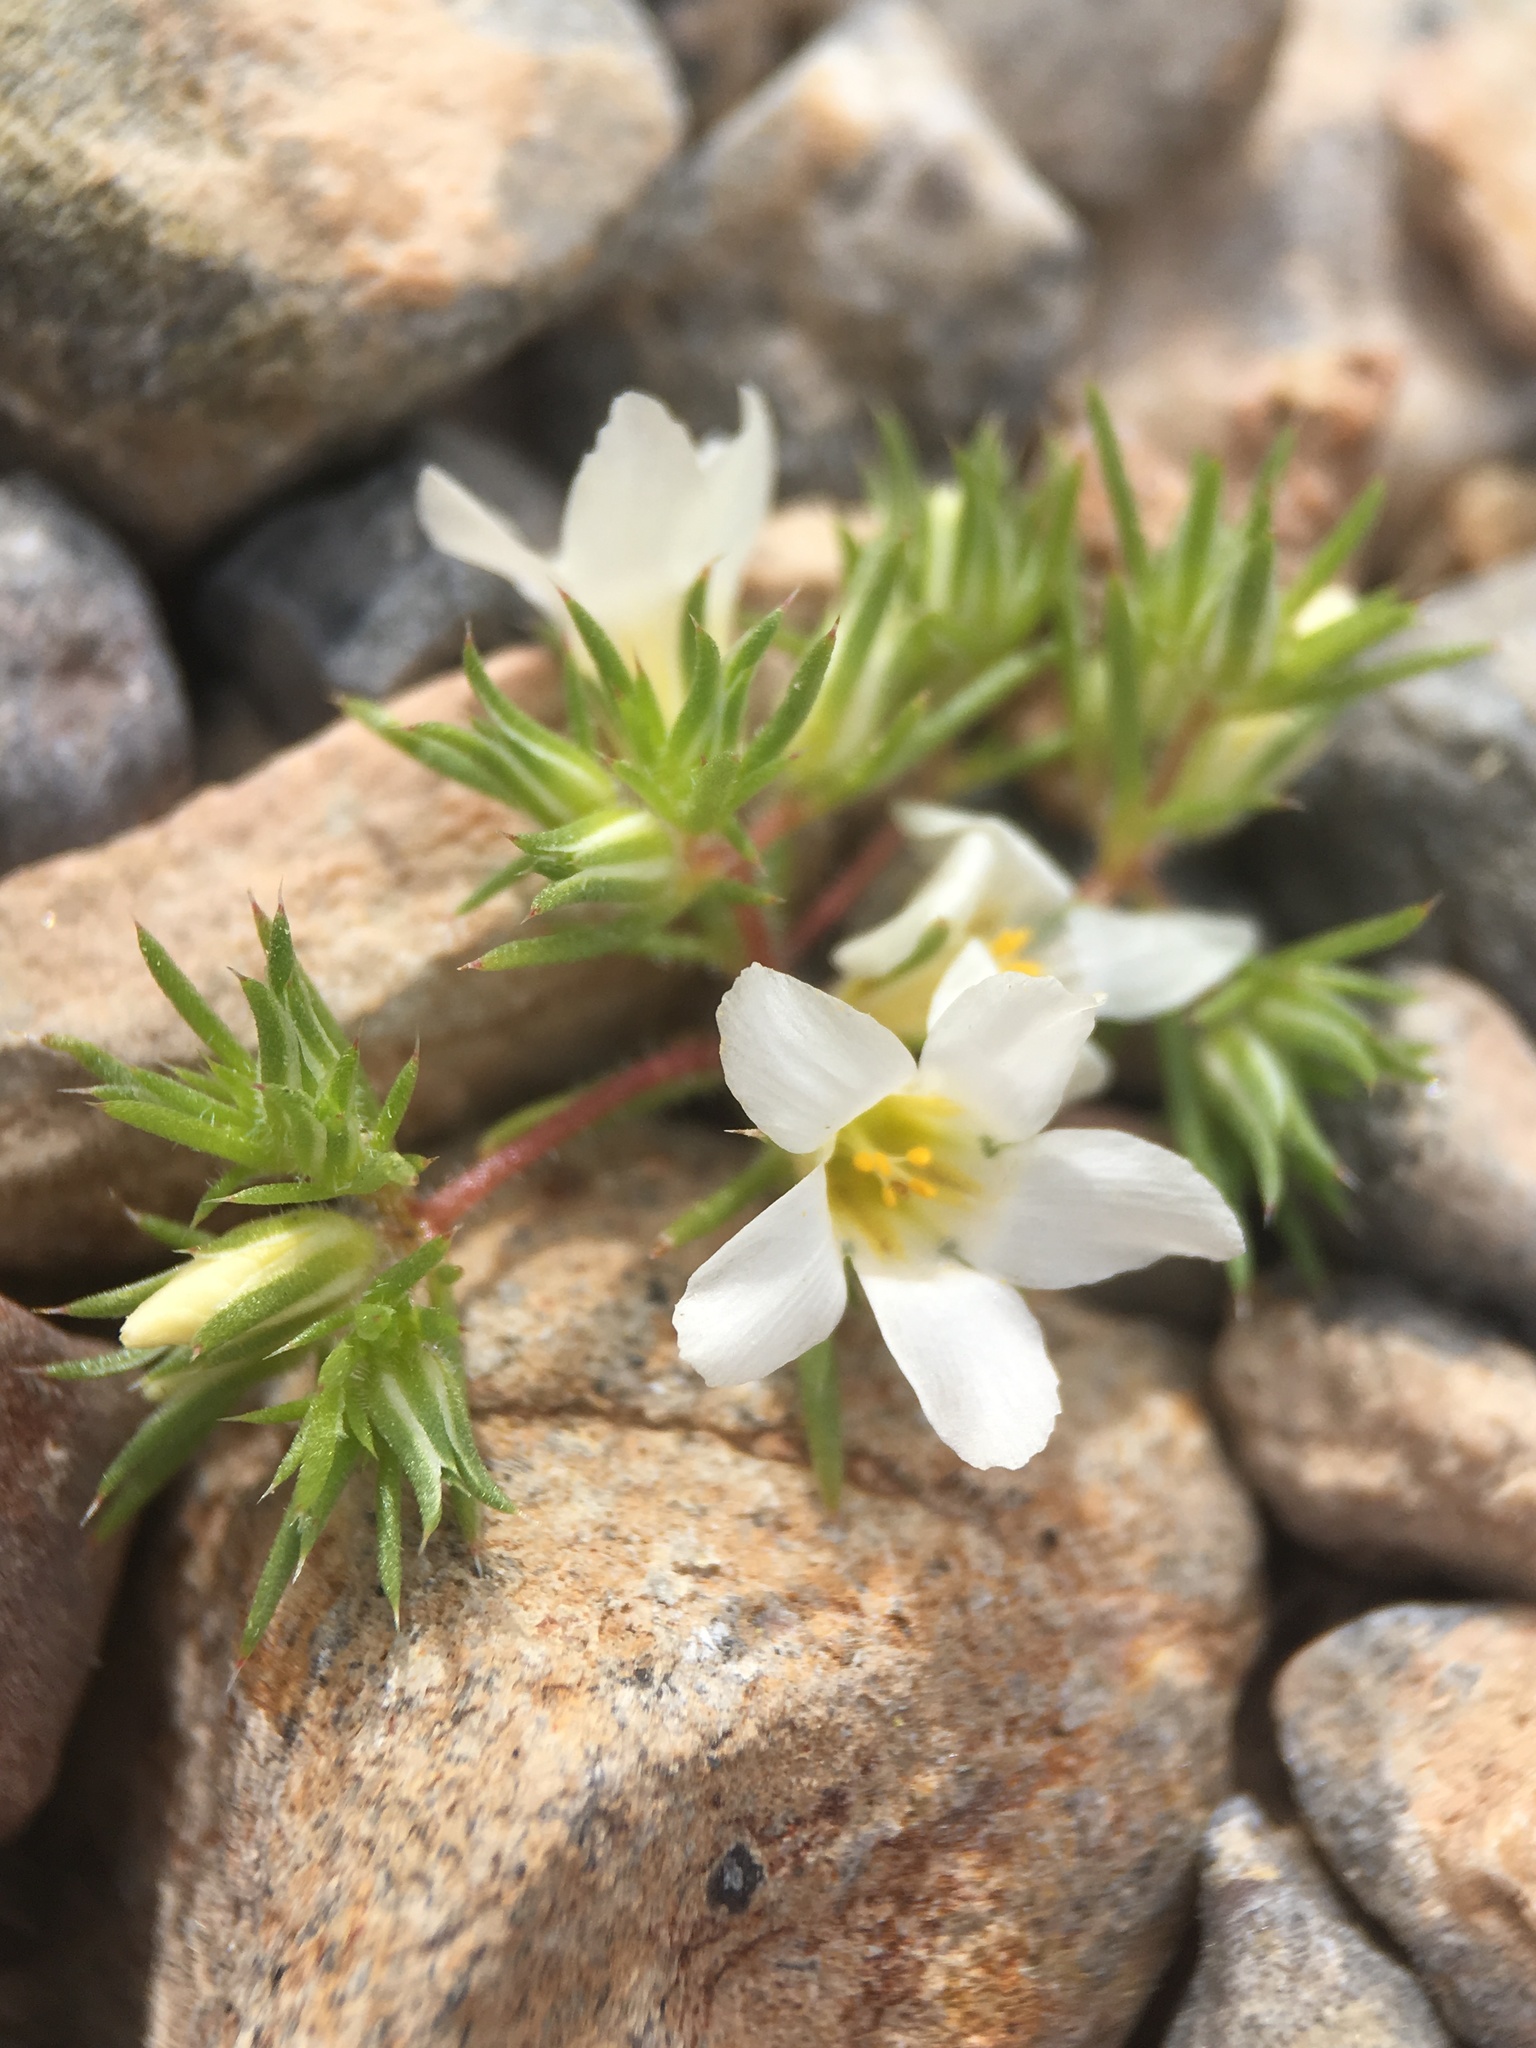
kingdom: Plantae
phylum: Tracheophyta
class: Magnoliopsida
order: Ericales
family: Polemoniaceae
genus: Linanthus
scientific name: Linanthus demissus
